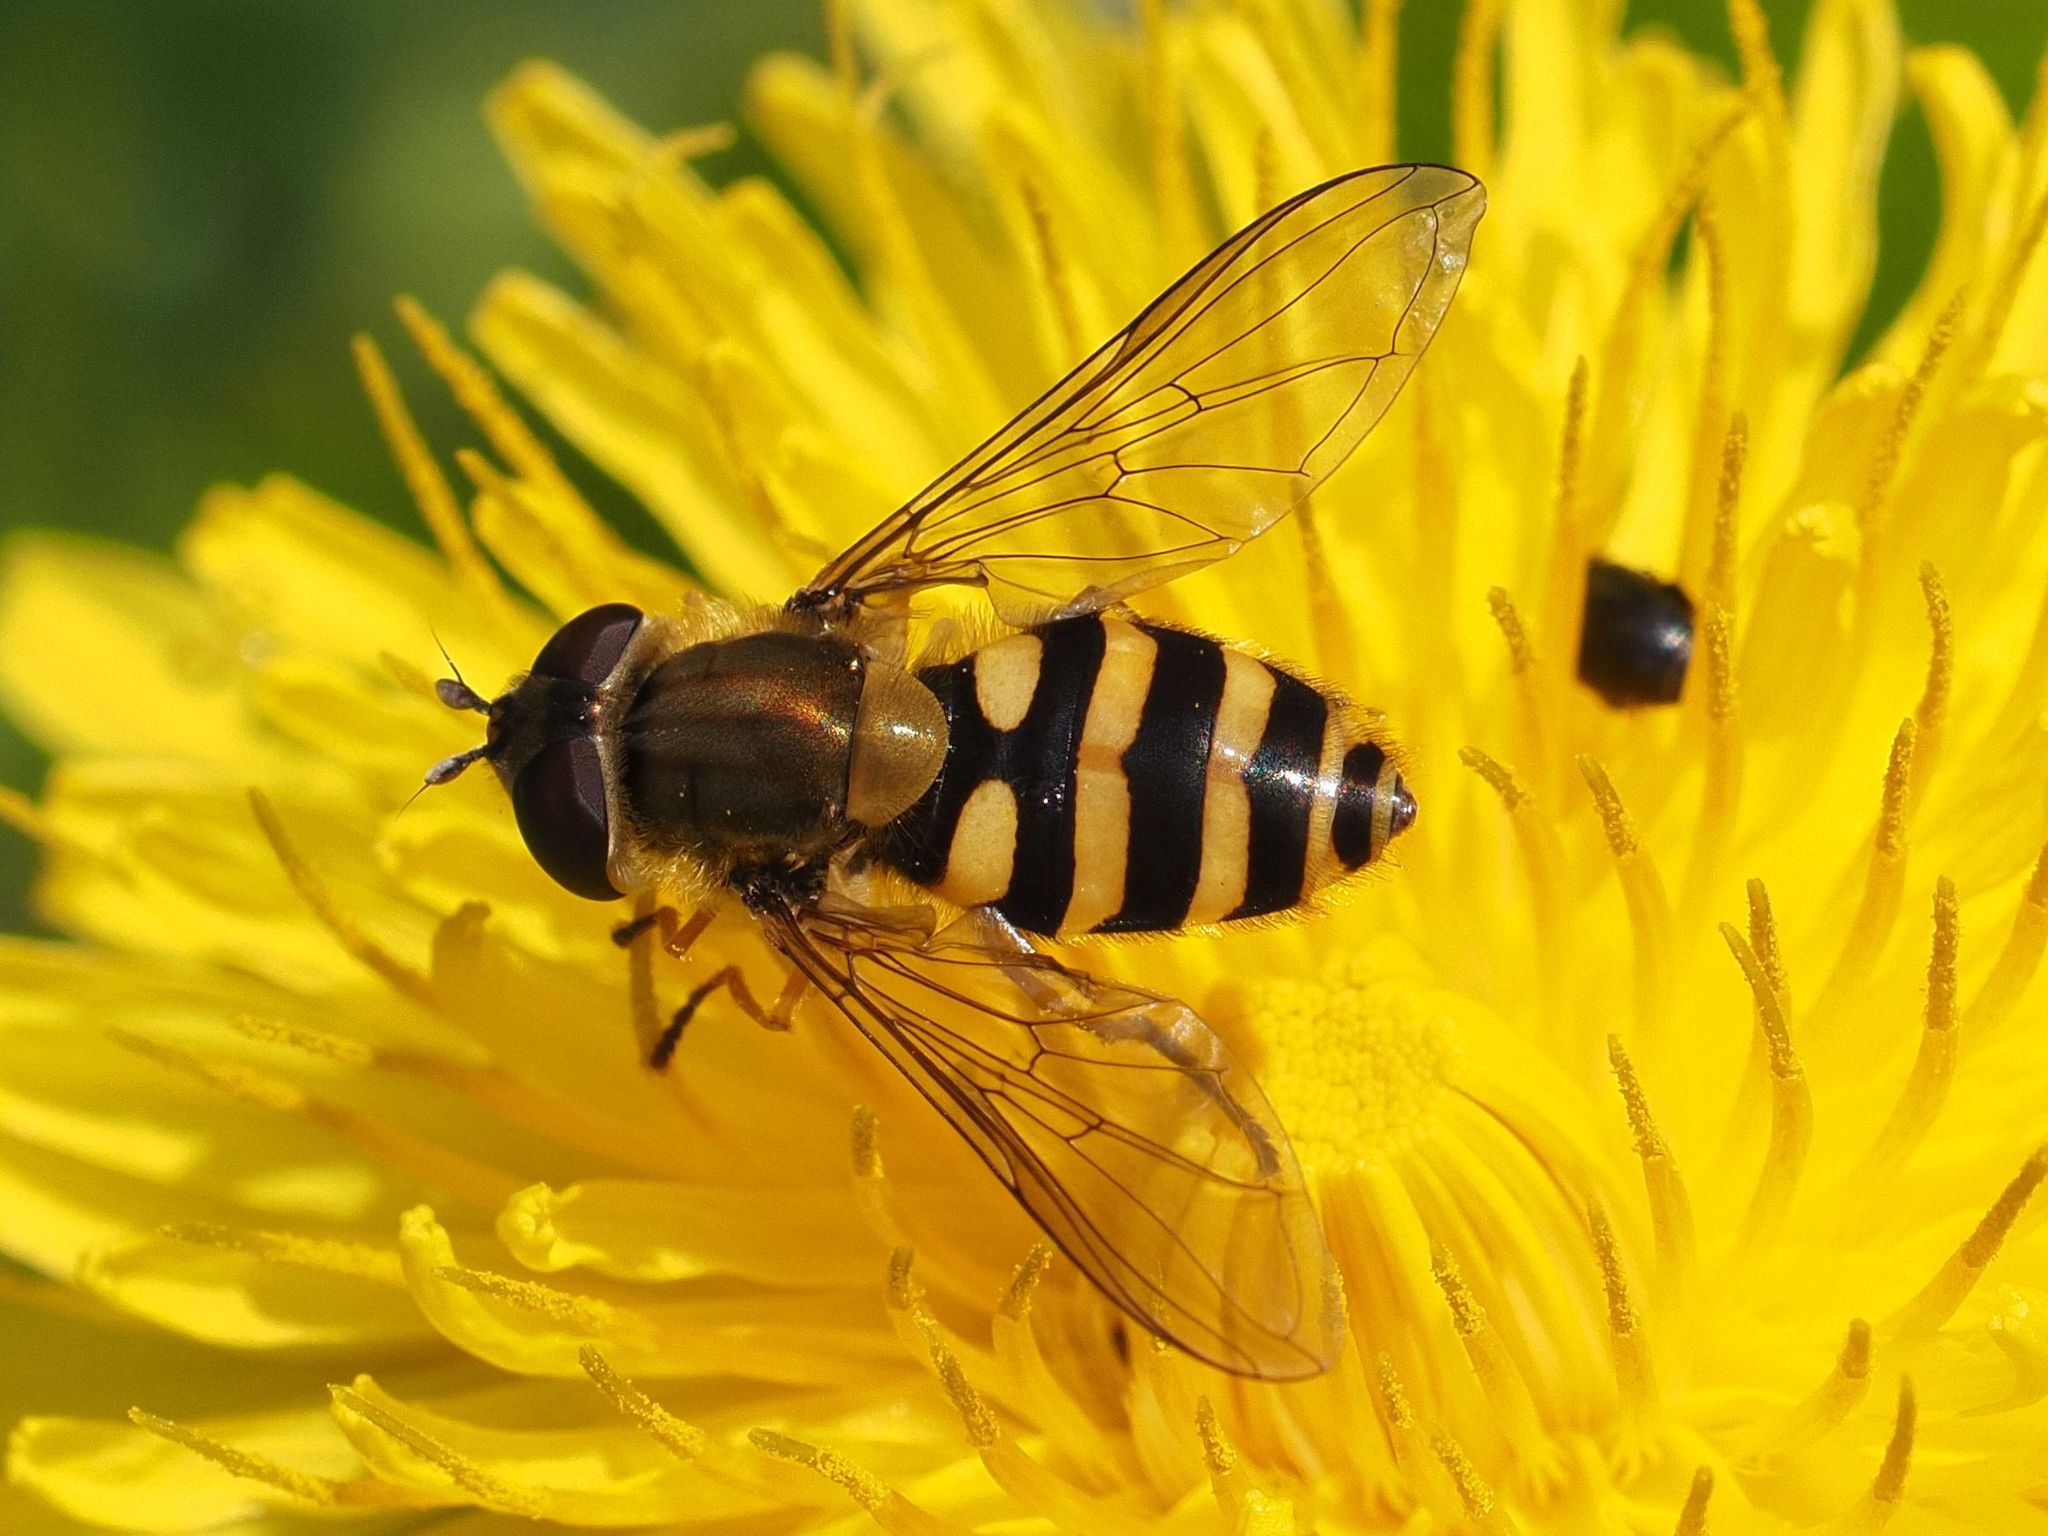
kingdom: Animalia
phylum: Arthropoda
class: Insecta
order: Diptera
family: Syrphidae
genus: Syrphus
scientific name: Syrphus
